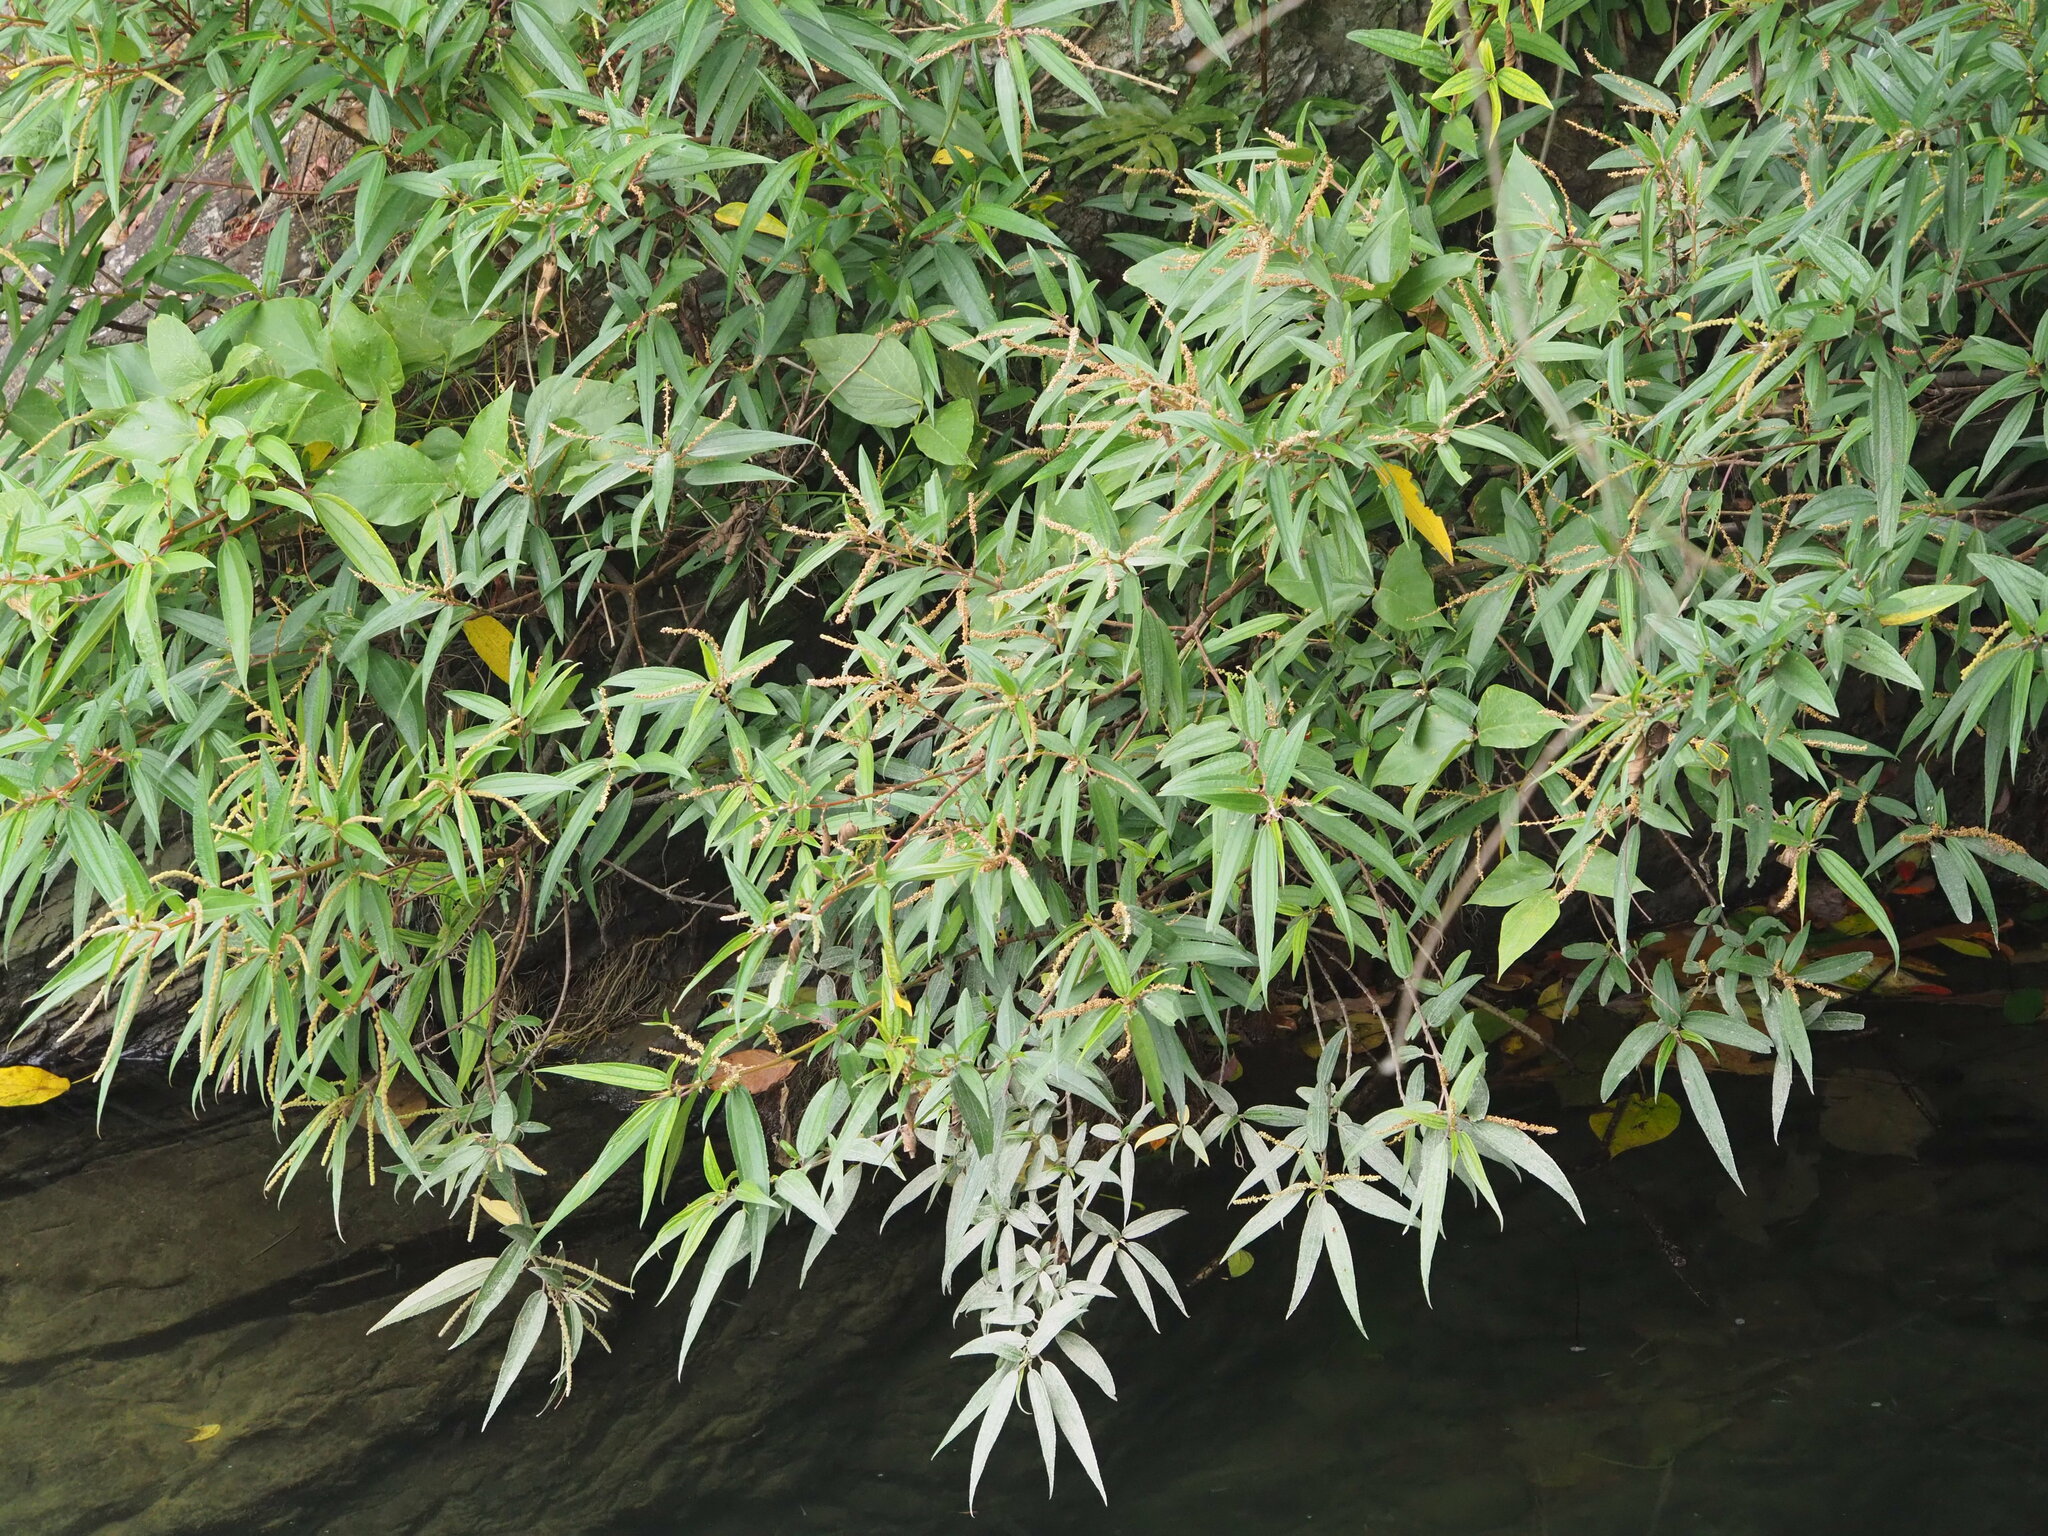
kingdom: Plantae
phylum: Tracheophyta
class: Magnoliopsida
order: Rosales
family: Urticaceae
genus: Boehmeria
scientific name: Boehmeria densiflora
